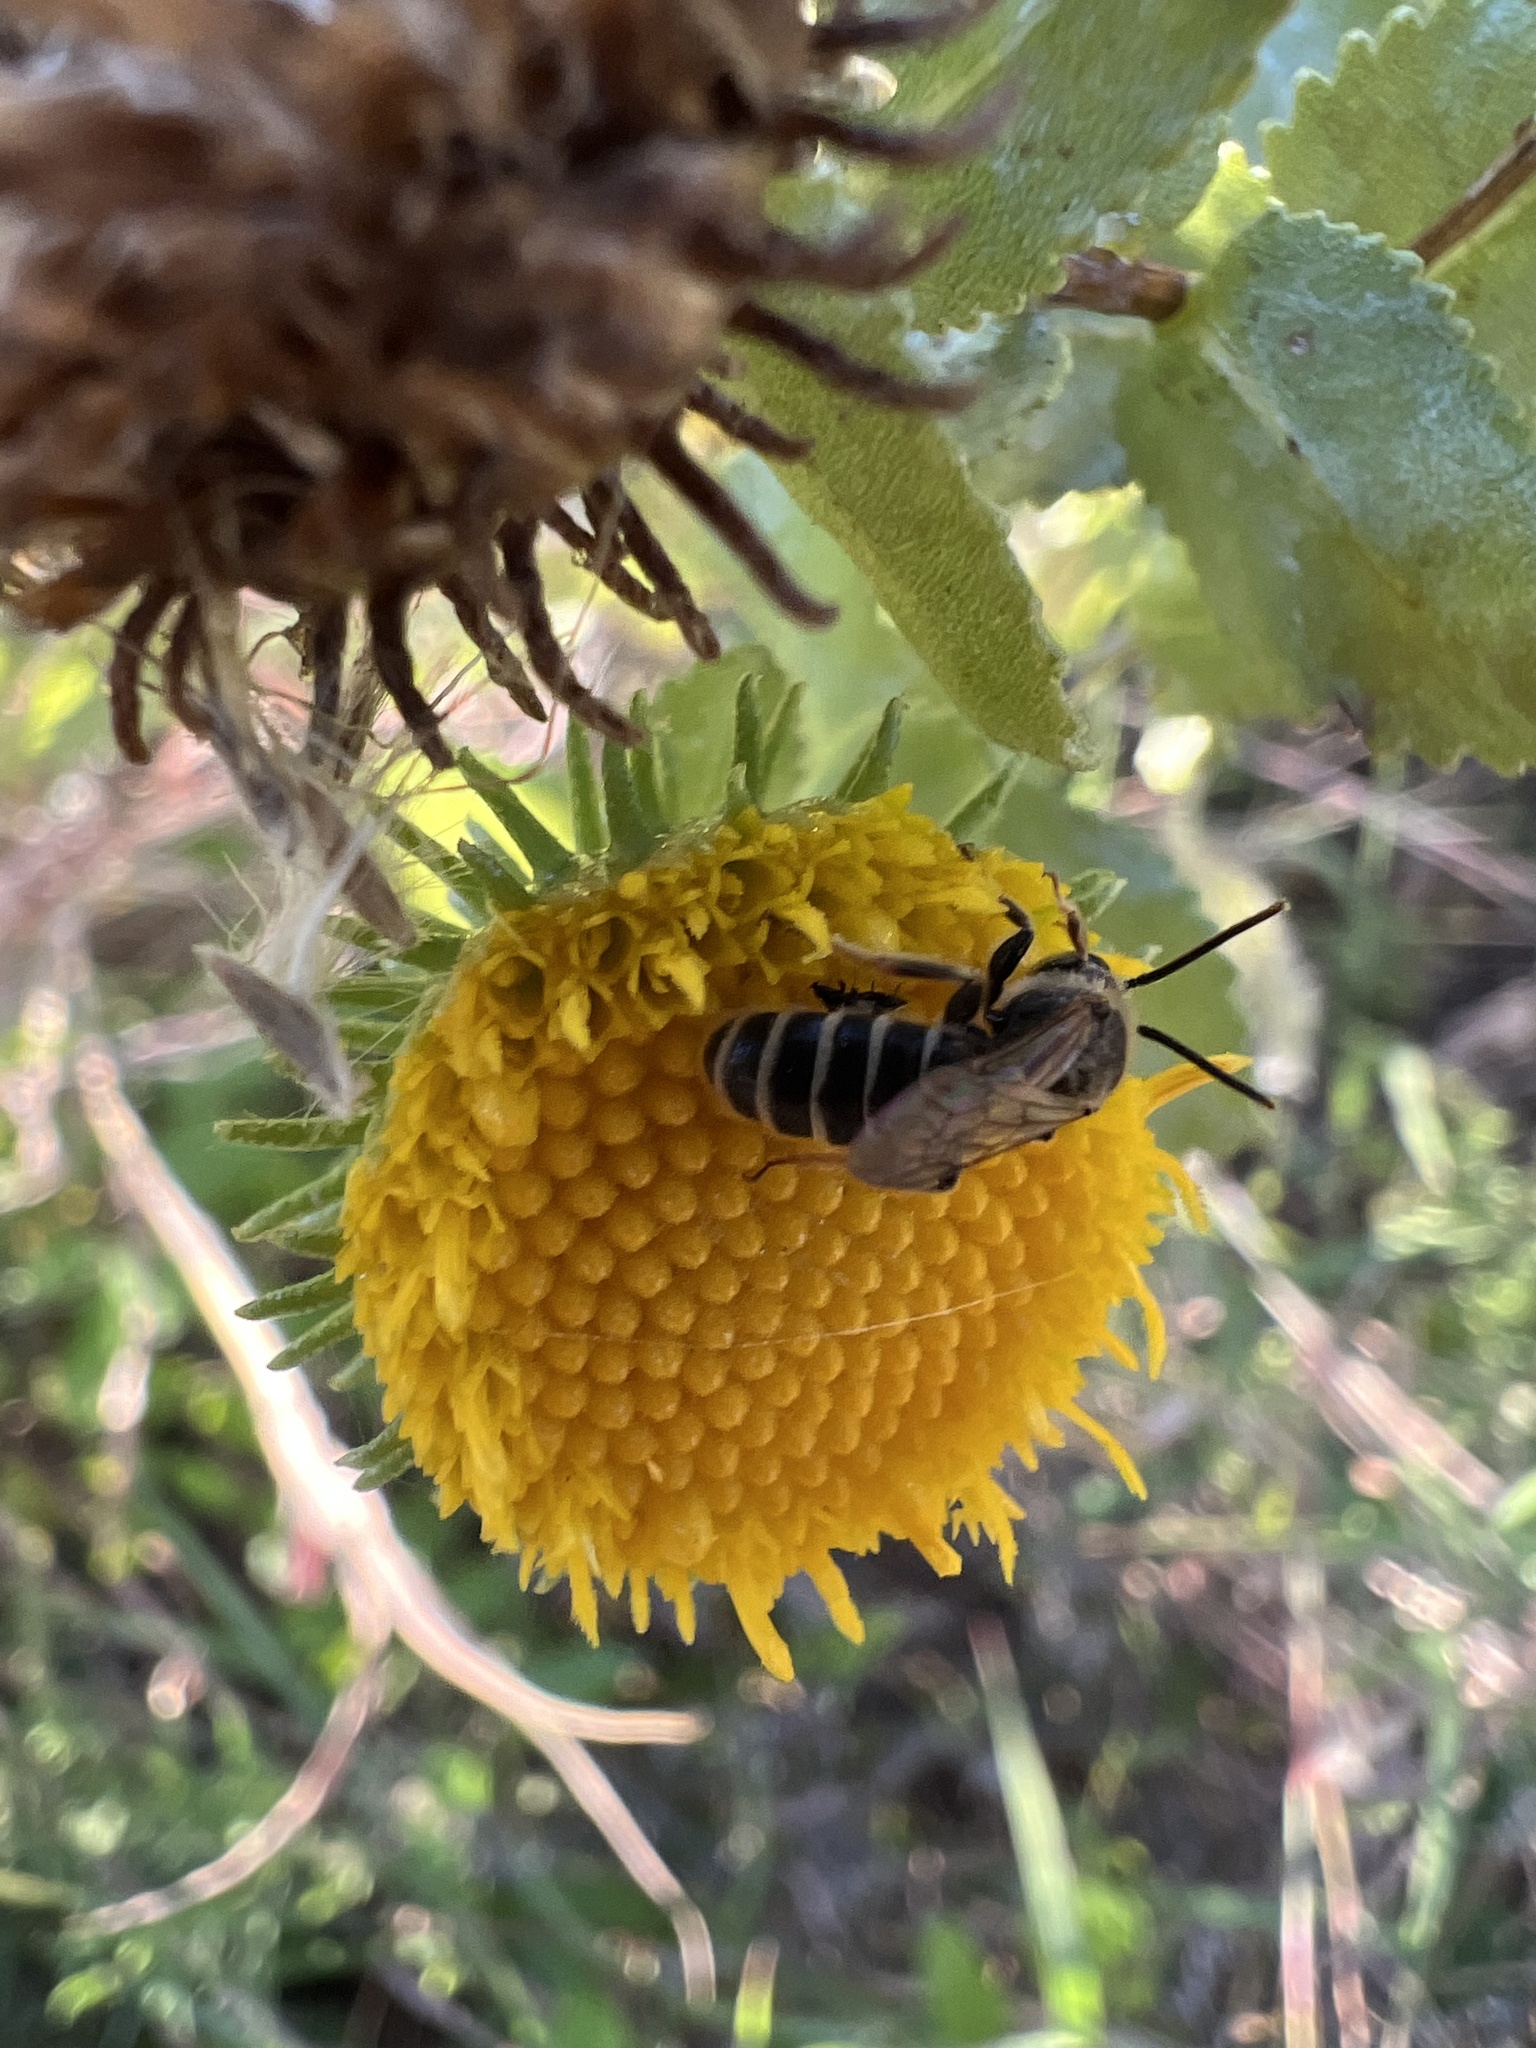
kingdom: Animalia
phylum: Arthropoda
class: Insecta
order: Hymenoptera
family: Halictidae
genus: Halictus
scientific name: Halictus ligatus
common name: Ligated furrow bee
